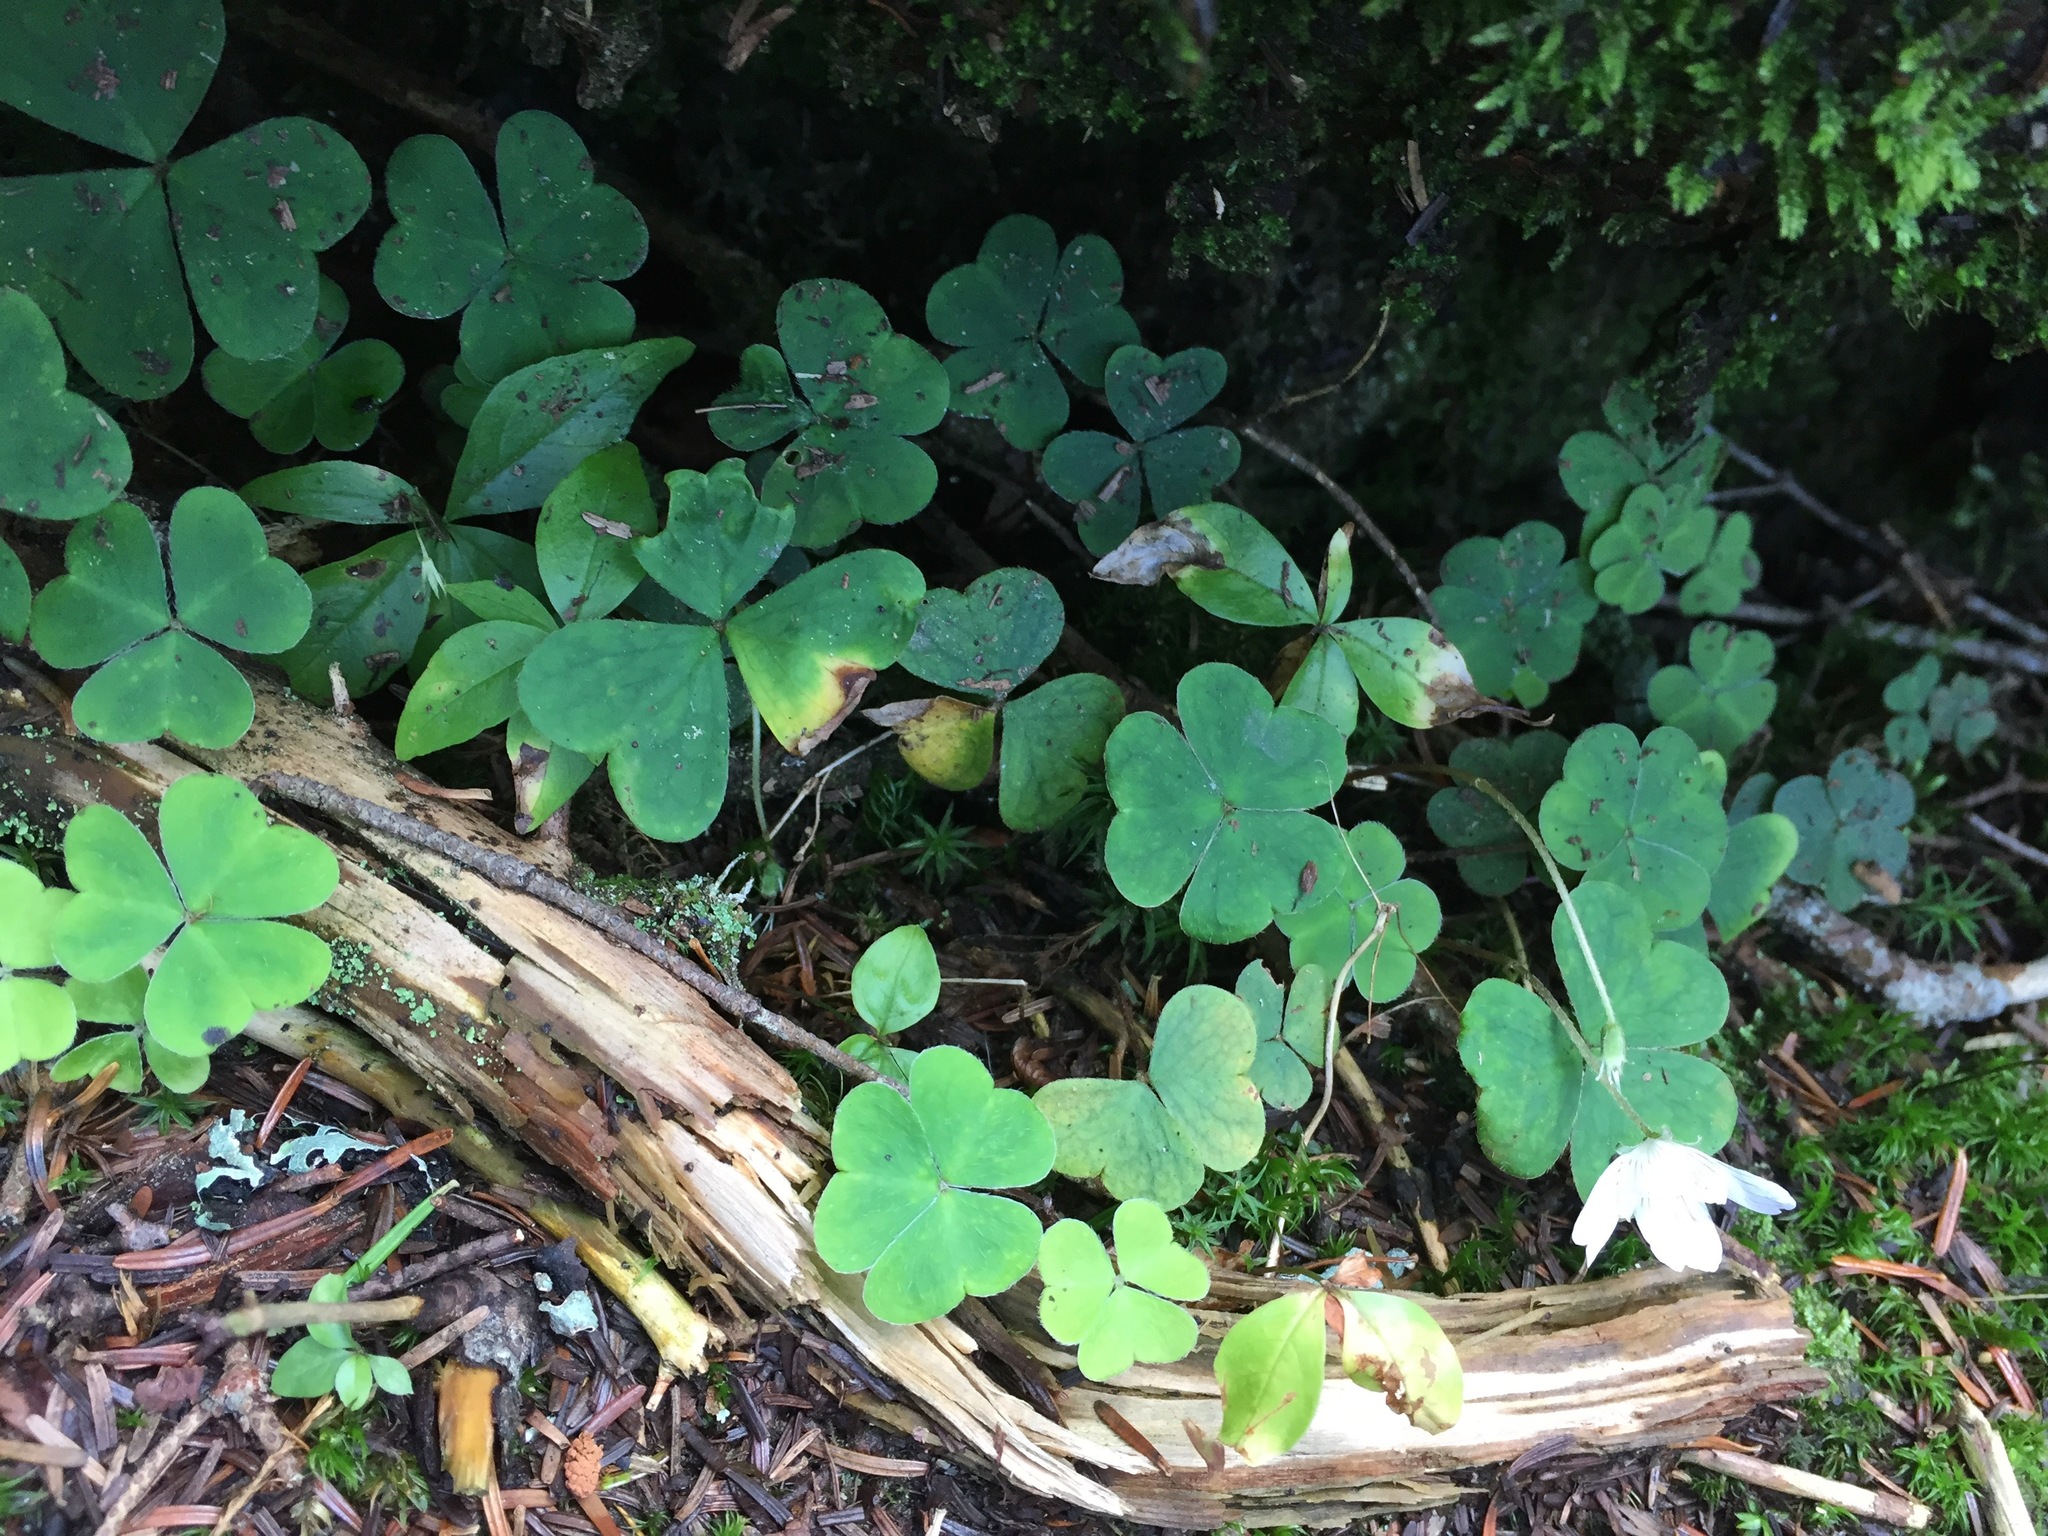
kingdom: Plantae
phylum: Tracheophyta
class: Magnoliopsida
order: Oxalidales
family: Oxalidaceae
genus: Oxalis
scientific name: Oxalis montana
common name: American wood-sorrel
